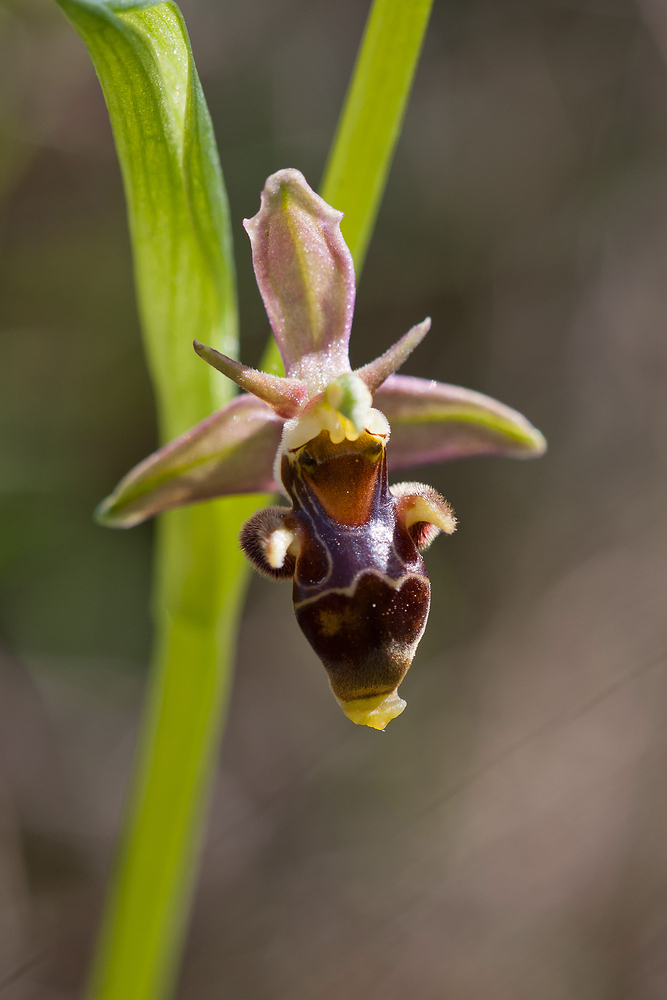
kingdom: Plantae
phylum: Tracheophyta
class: Liliopsida
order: Asparagales
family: Orchidaceae
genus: Ophrys
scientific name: Ophrys scolopax
